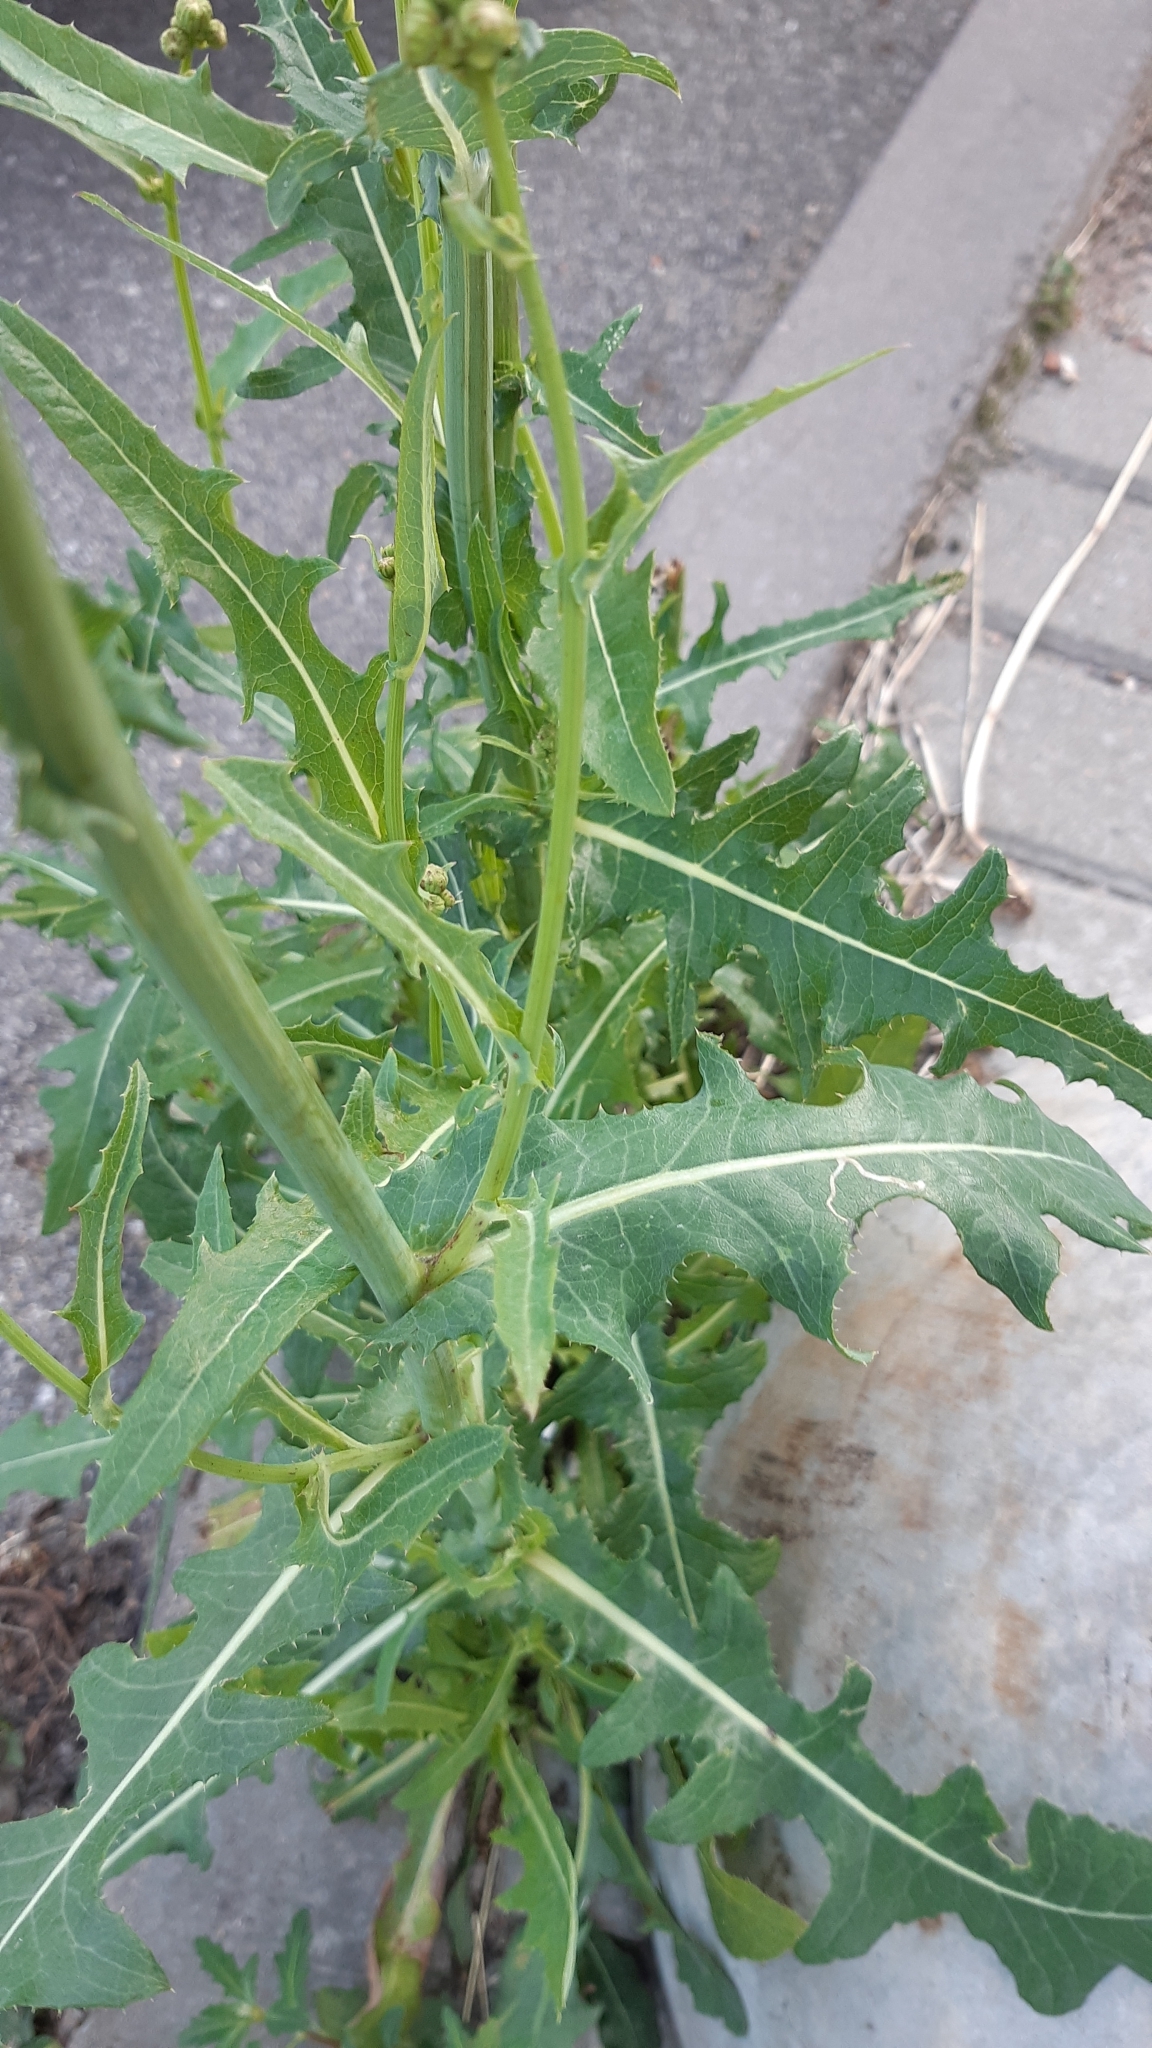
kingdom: Plantae
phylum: Tracheophyta
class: Magnoliopsida
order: Asterales
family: Asteraceae
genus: Sonchus
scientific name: Sonchus arvensis
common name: Perennial sow-thistle
